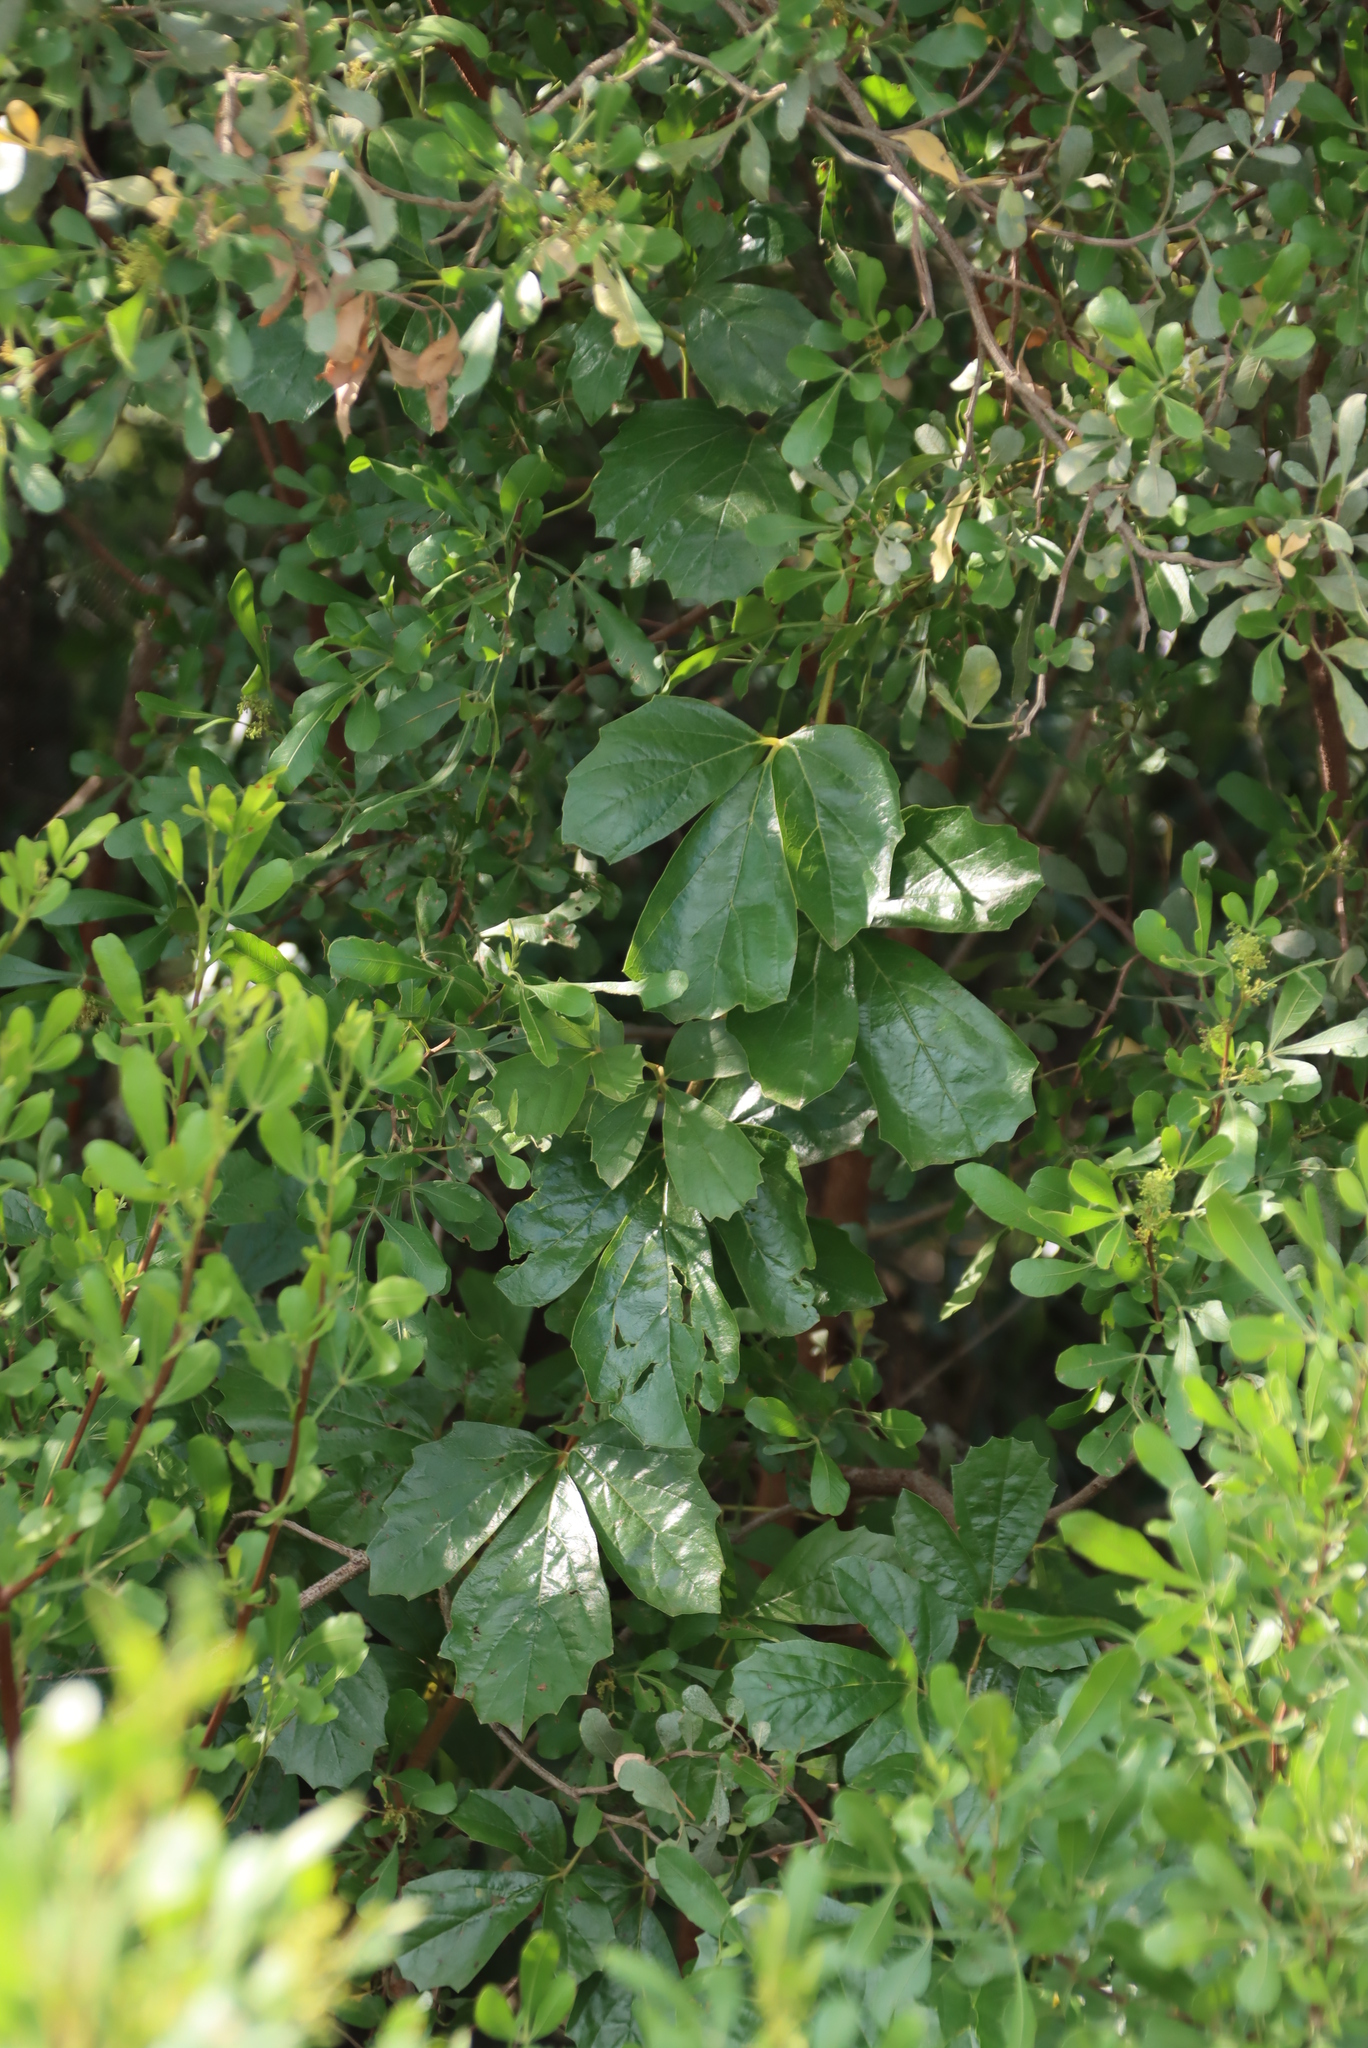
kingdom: Plantae
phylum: Tracheophyta
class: Magnoliopsida
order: Vitales
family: Vitaceae
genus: Rhoicissus
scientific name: Rhoicissus tridentata
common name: Common forest grape
